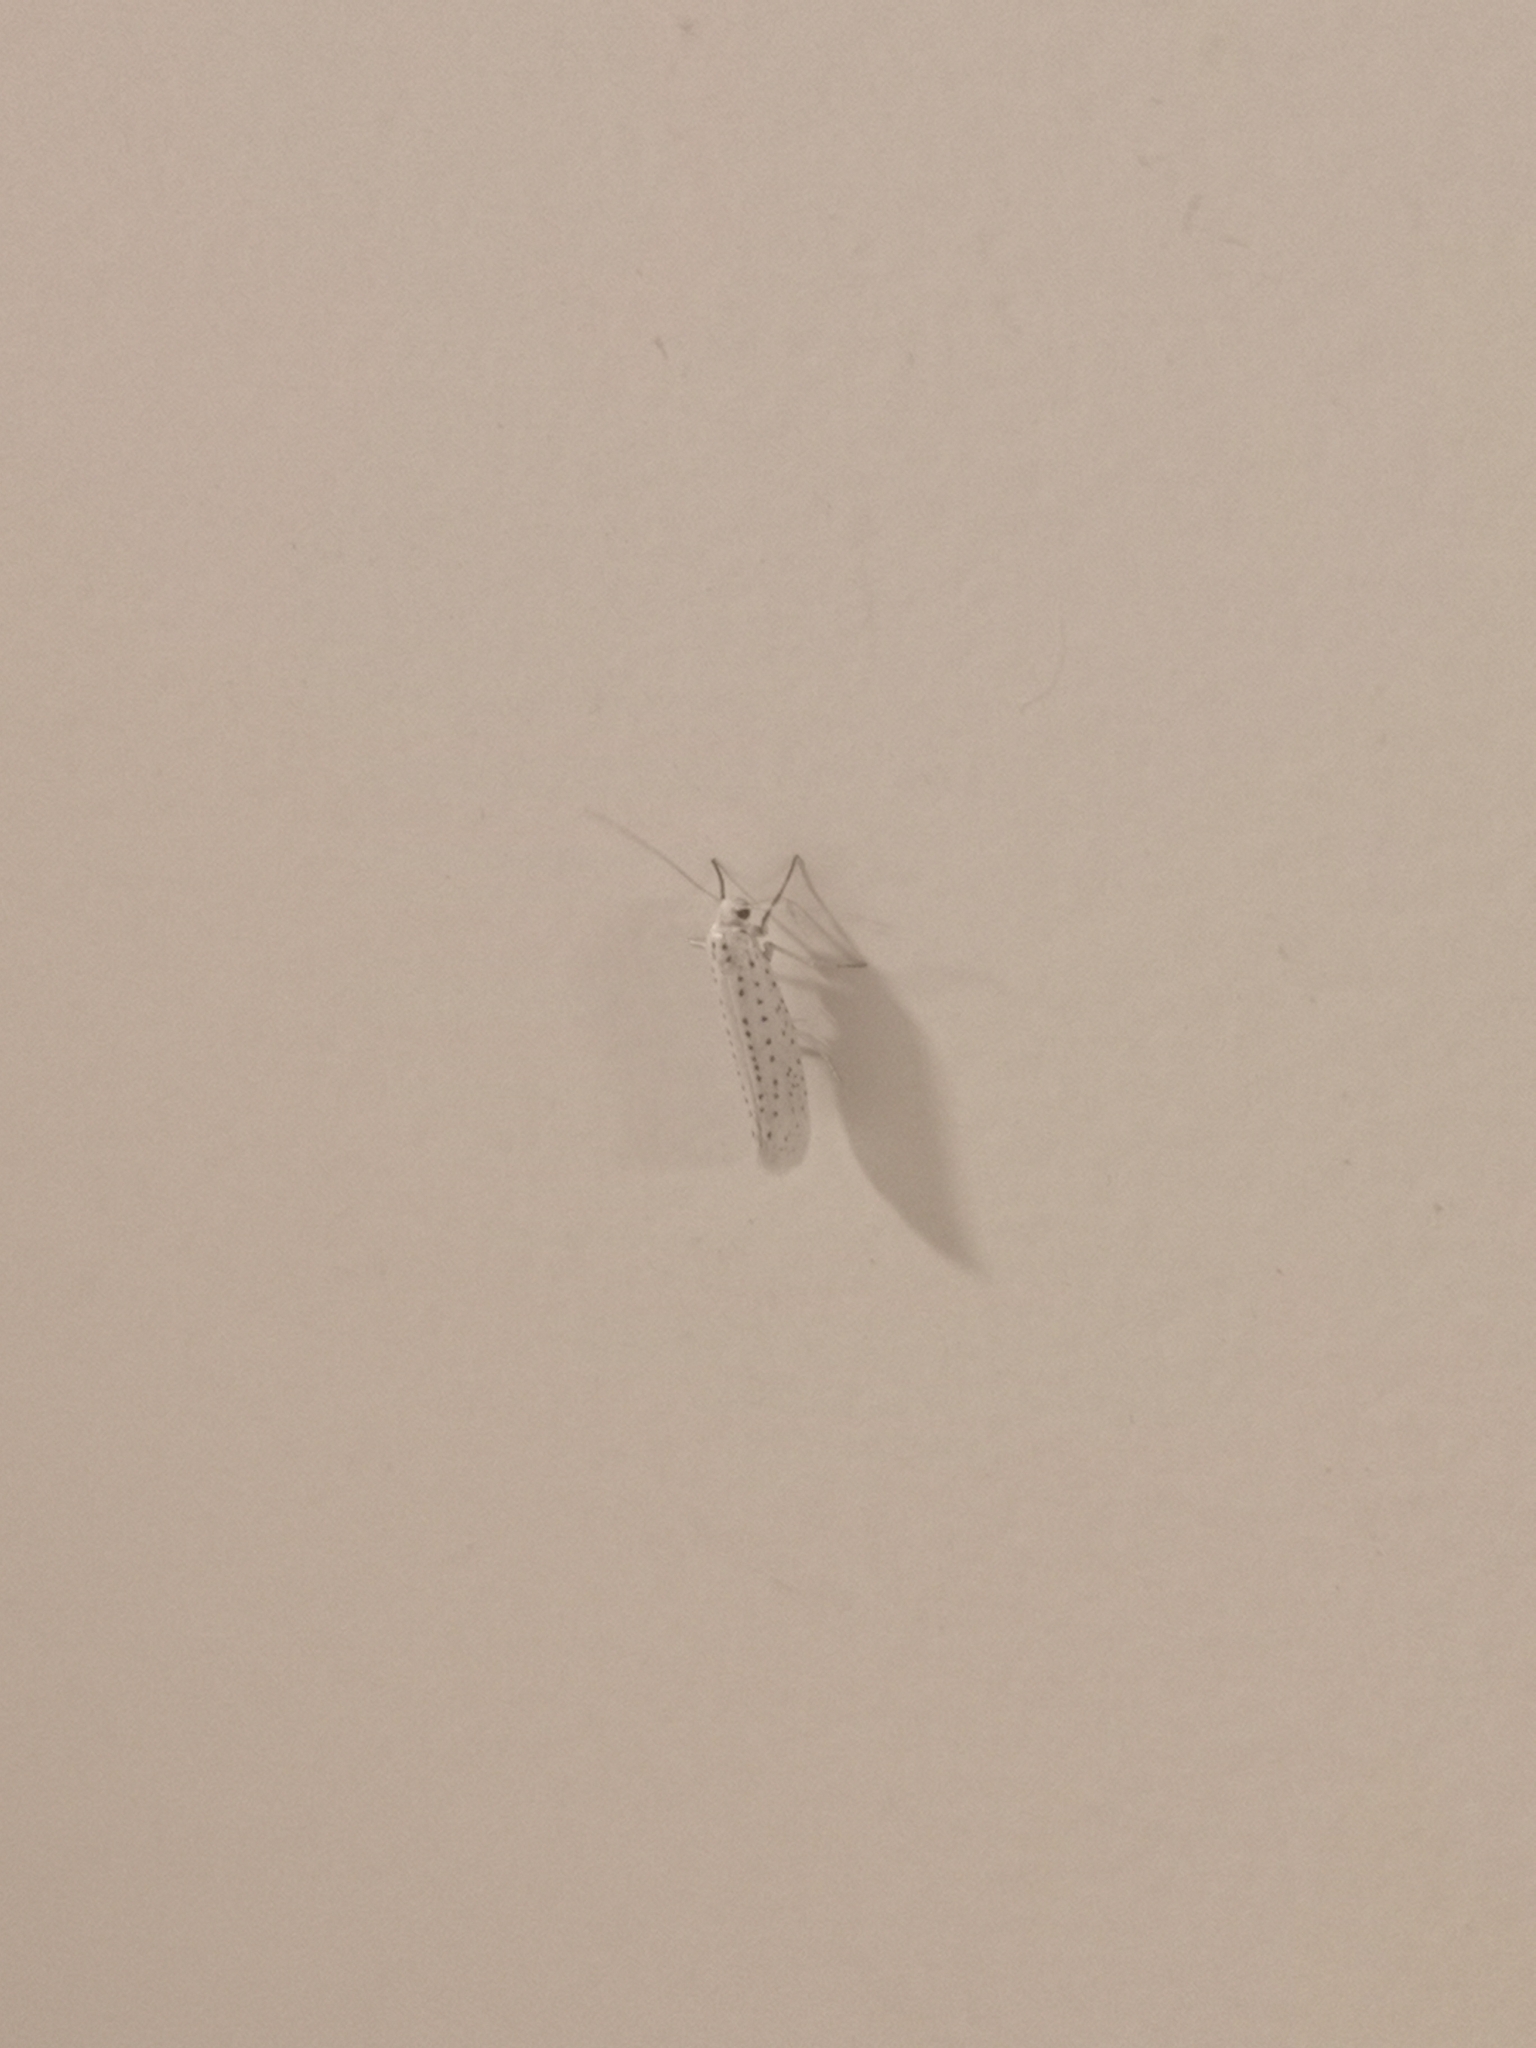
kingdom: Animalia
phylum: Arthropoda
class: Insecta
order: Lepidoptera
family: Yponomeutidae
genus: Yponomeuta
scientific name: Yponomeuta evonymella
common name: Bird-cherry ermine
